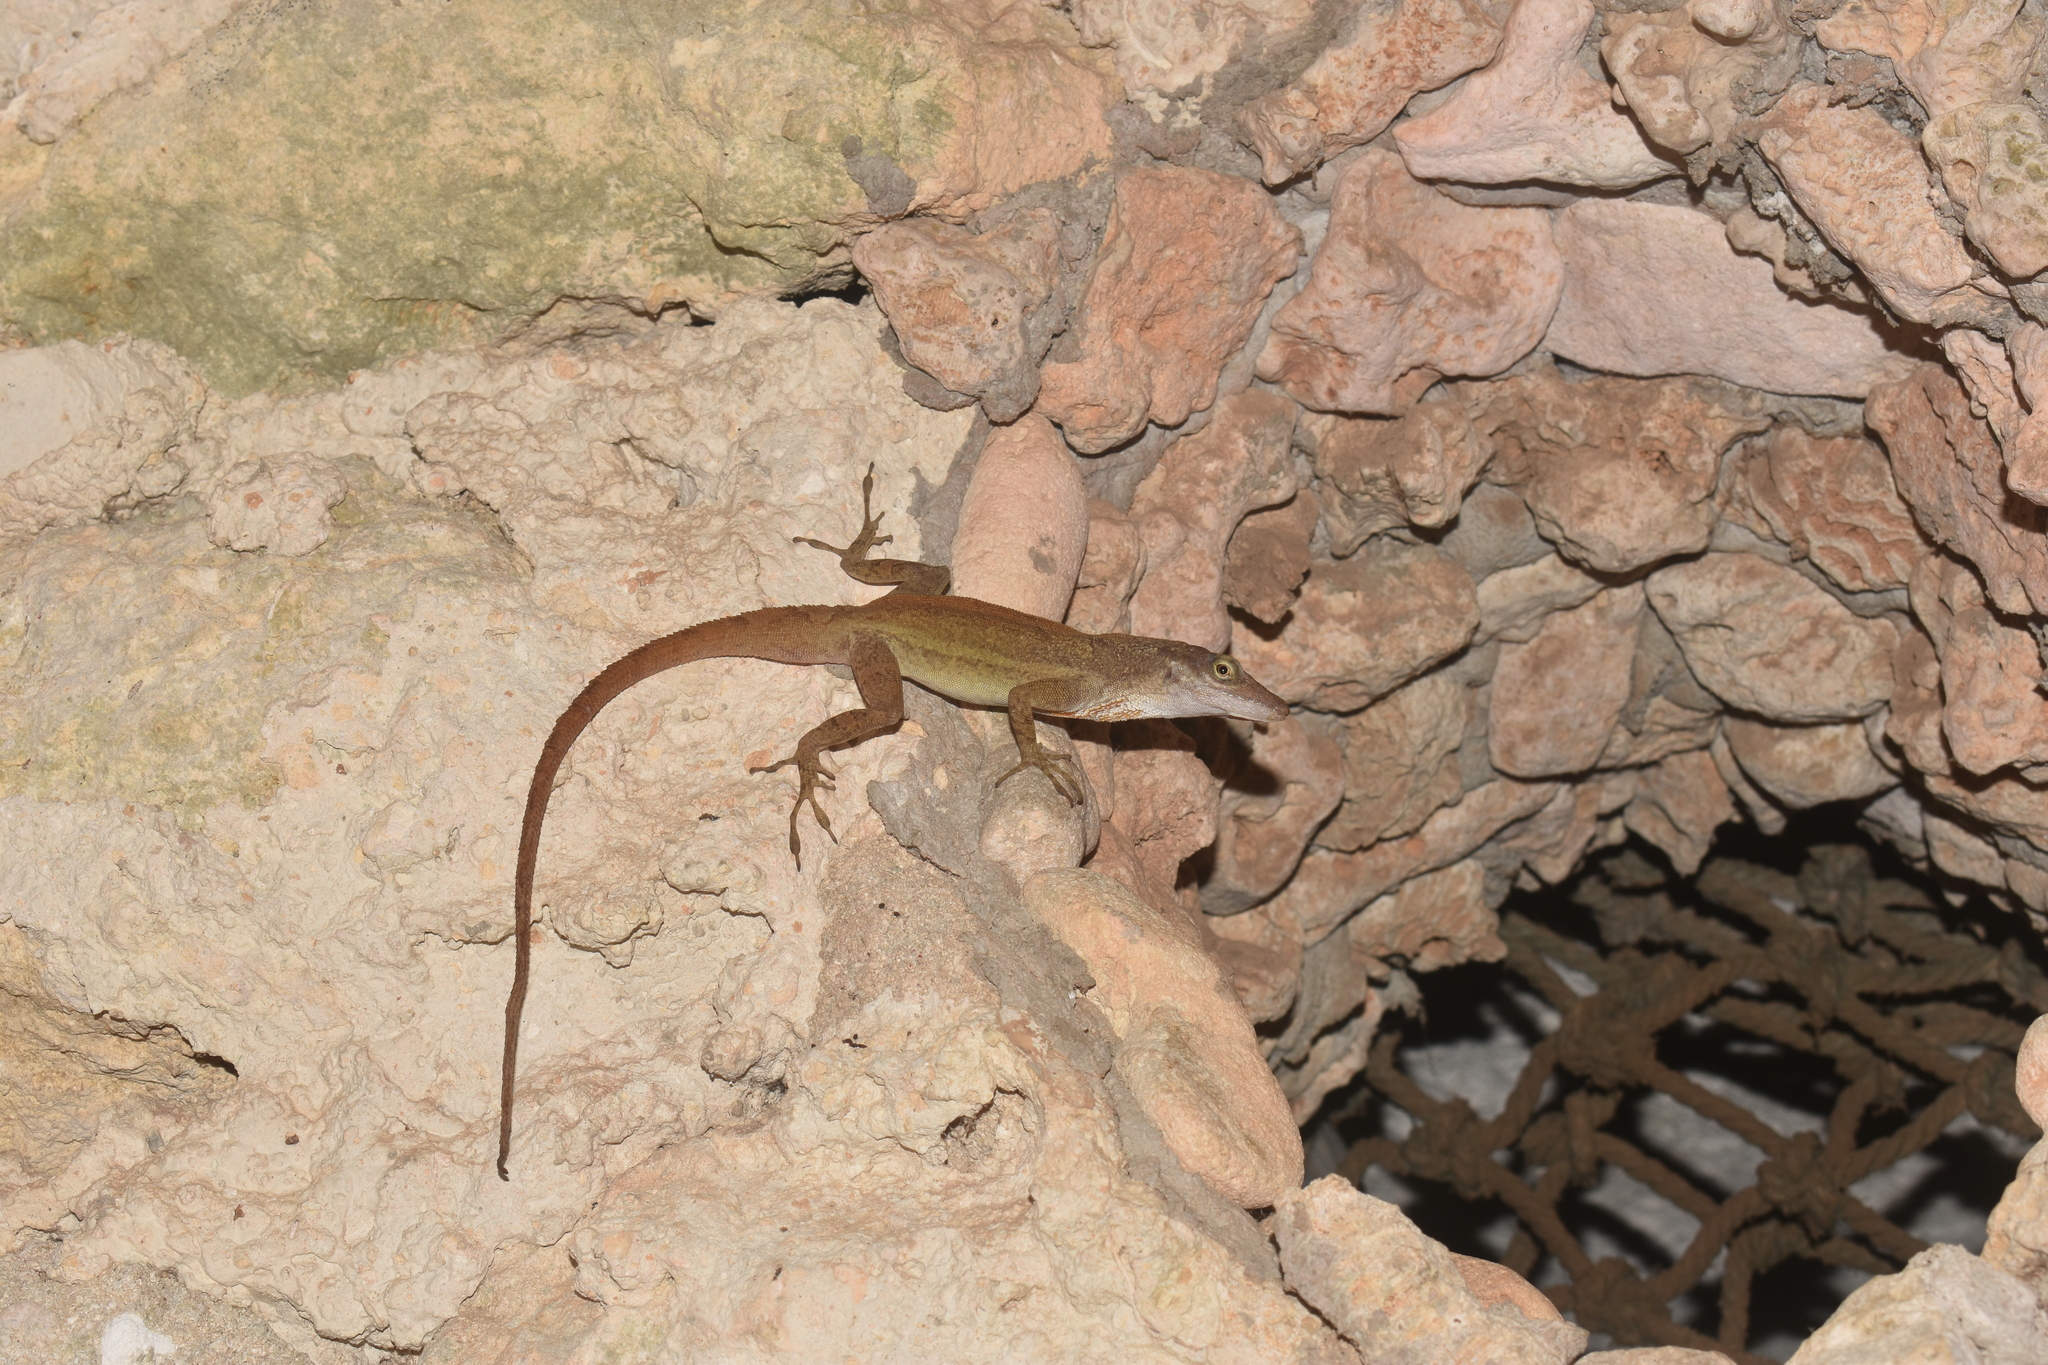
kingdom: Animalia
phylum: Chordata
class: Squamata
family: Dactyloidae
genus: Anolis
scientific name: Anolis concolor
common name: Isla san andres anole
